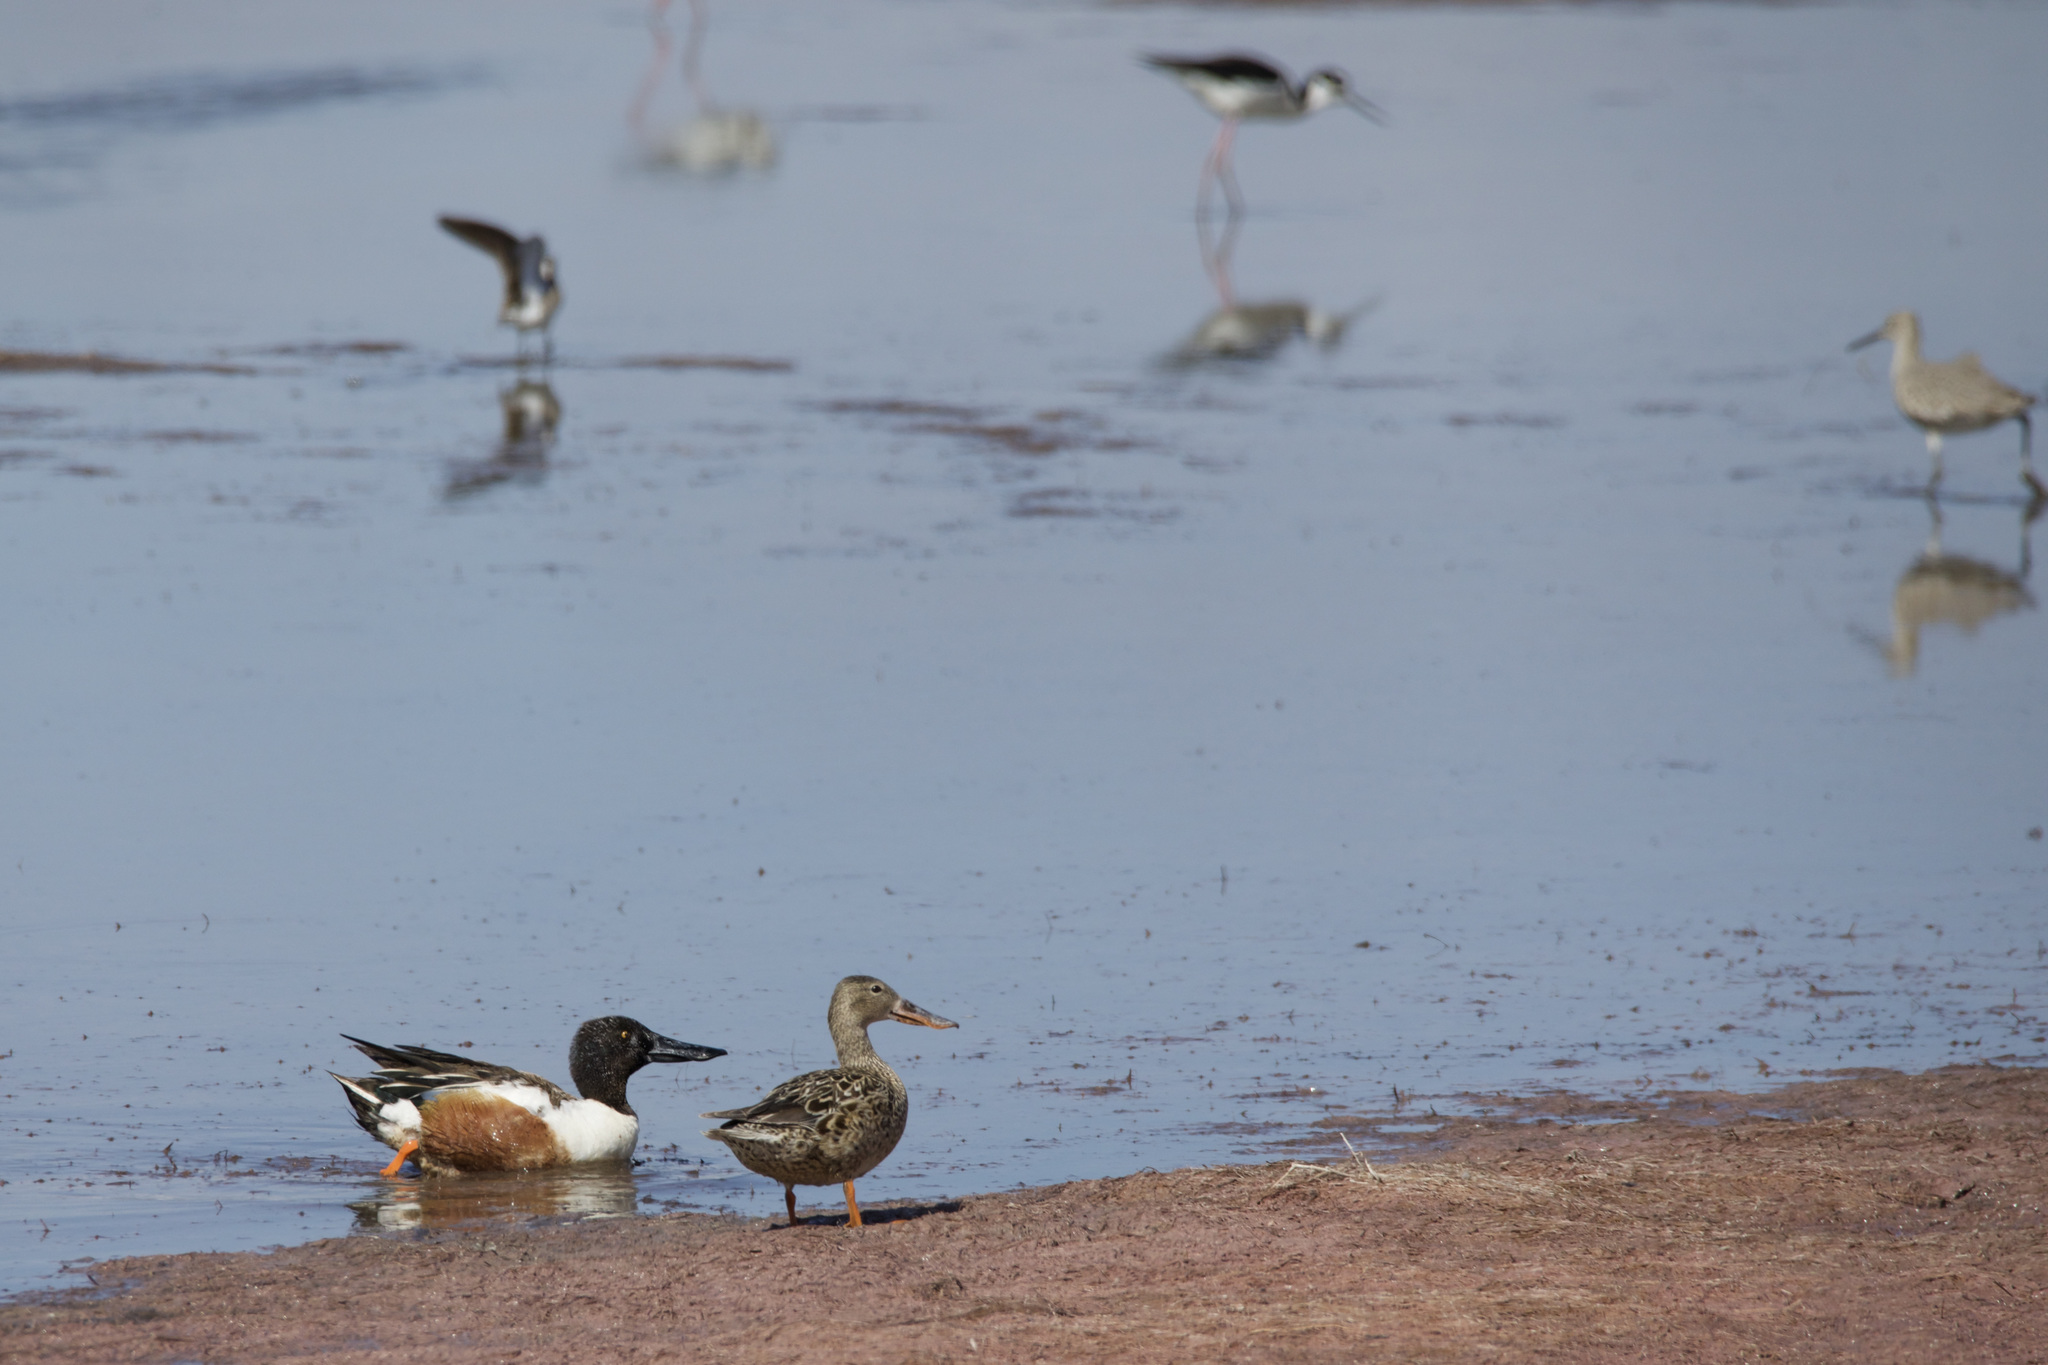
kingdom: Animalia
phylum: Chordata
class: Aves
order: Anseriformes
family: Anatidae
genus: Spatula
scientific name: Spatula clypeata
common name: Northern shoveler
